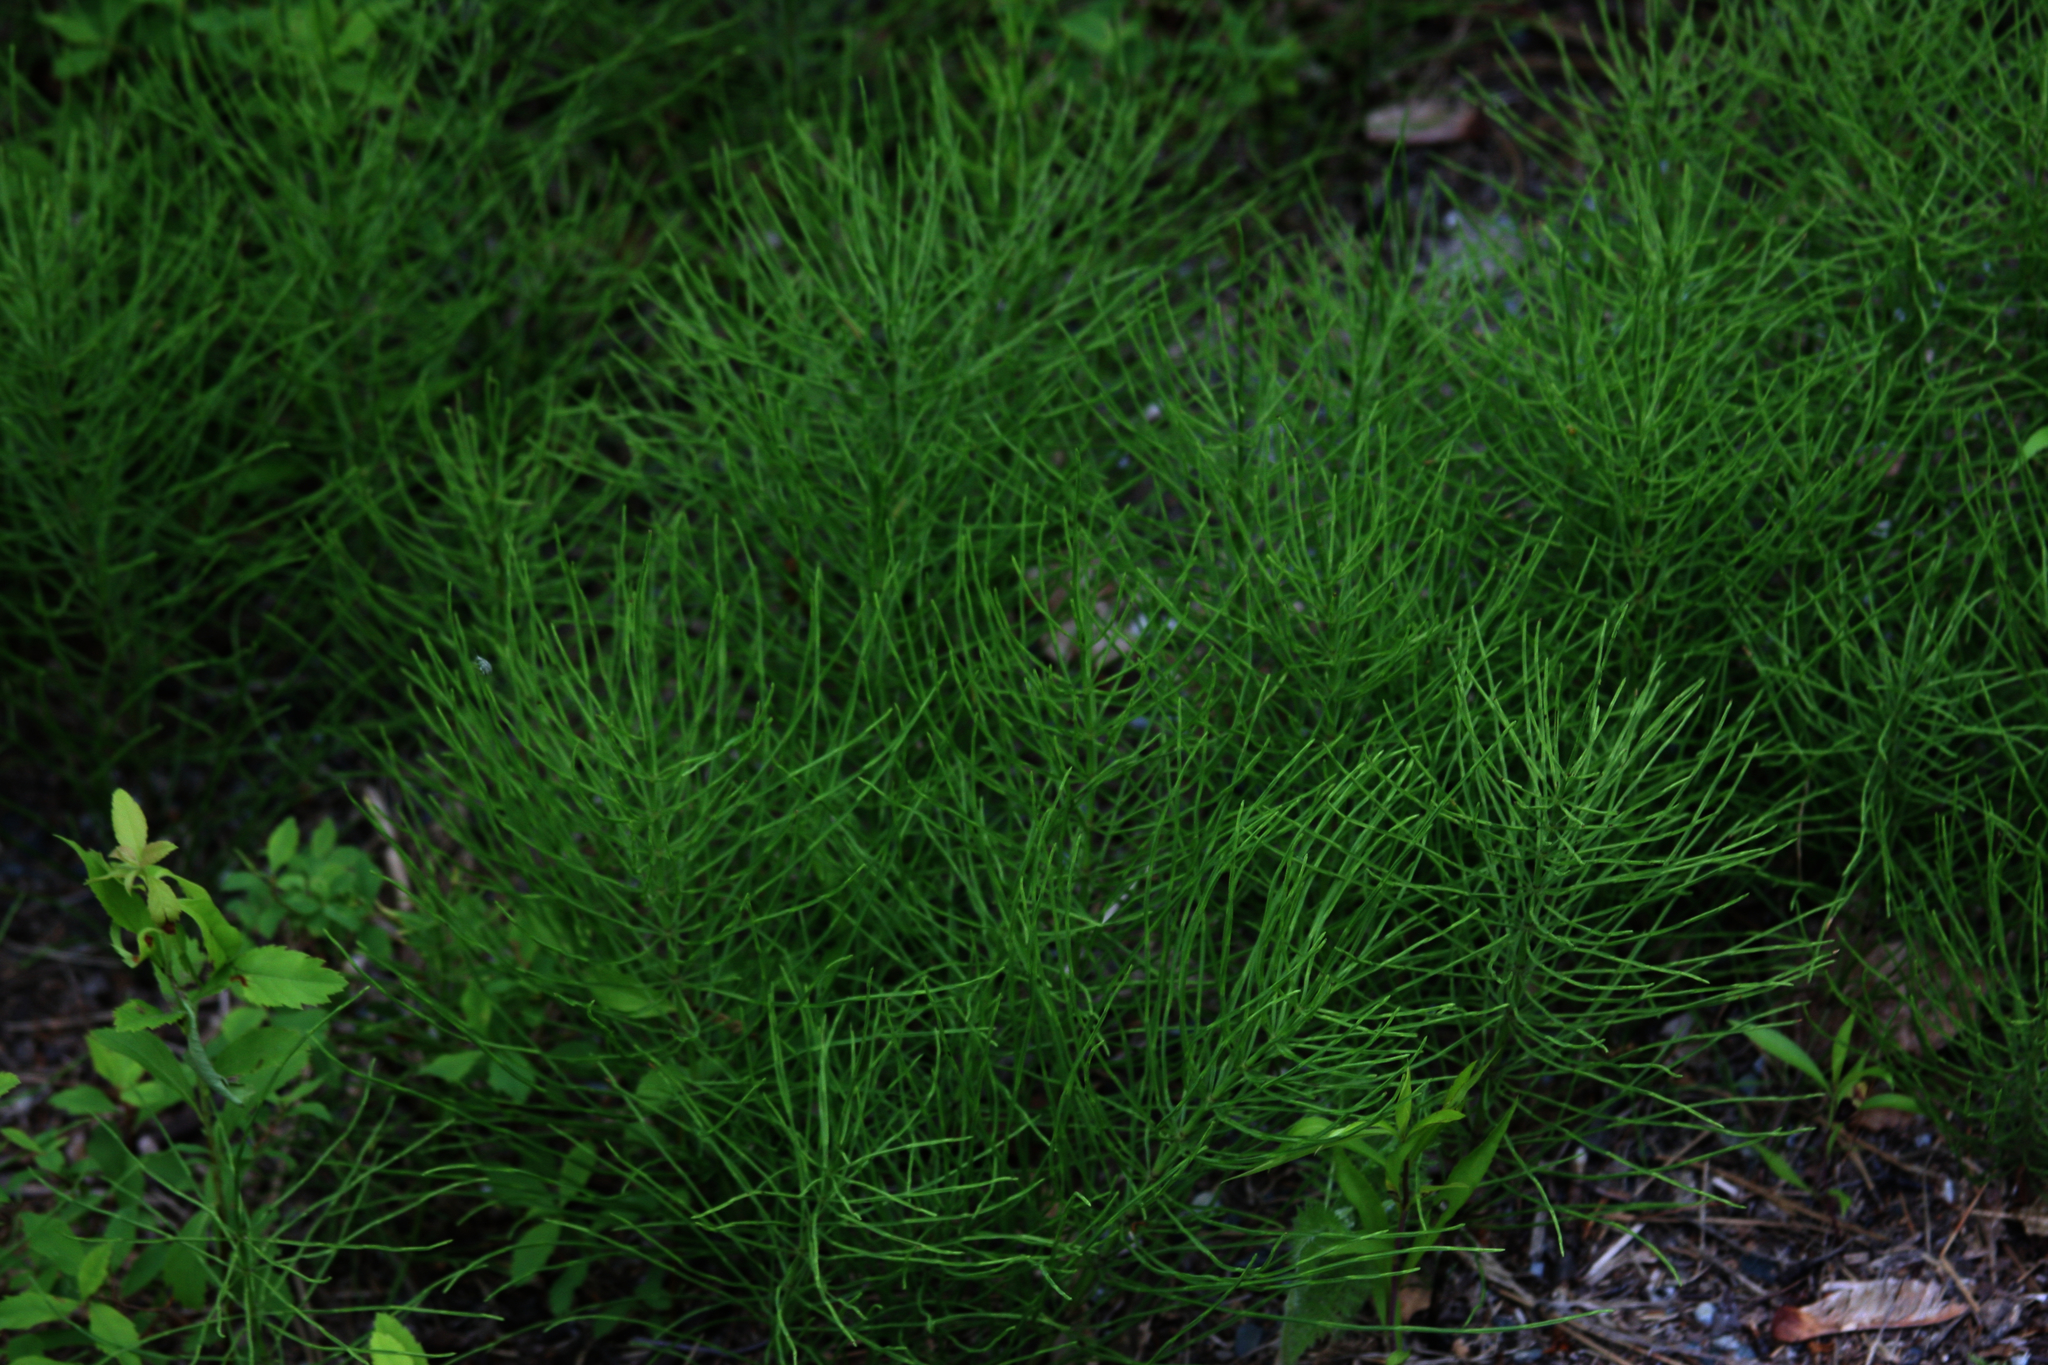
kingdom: Plantae
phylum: Tracheophyta
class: Polypodiopsida
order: Equisetales
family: Equisetaceae
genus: Equisetum
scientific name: Equisetum arvense
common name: Field horsetail
